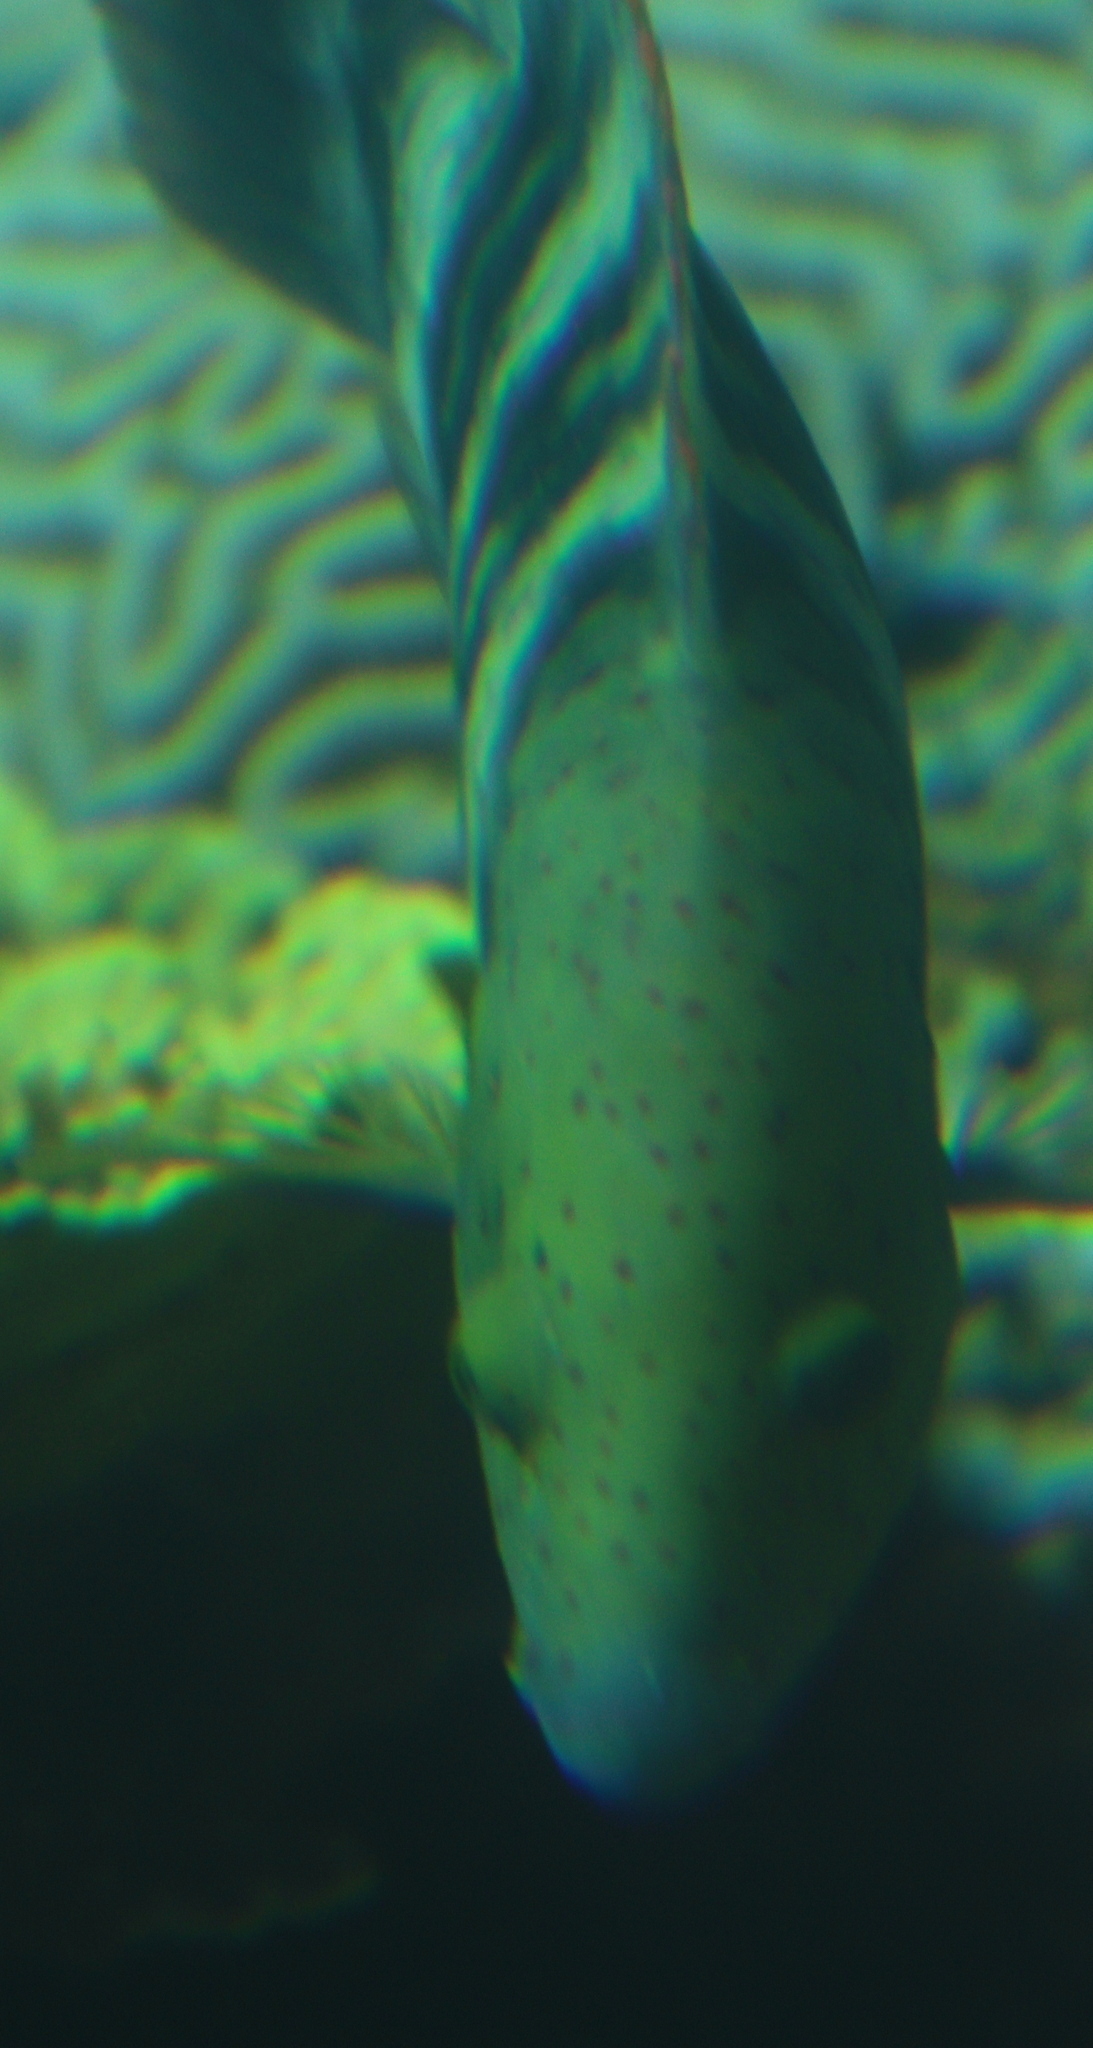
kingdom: Animalia
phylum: Chordata
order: Perciformes
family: Labridae
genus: Cheilinus
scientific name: Cheilinus lunulatus
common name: Broomtail wrasse
